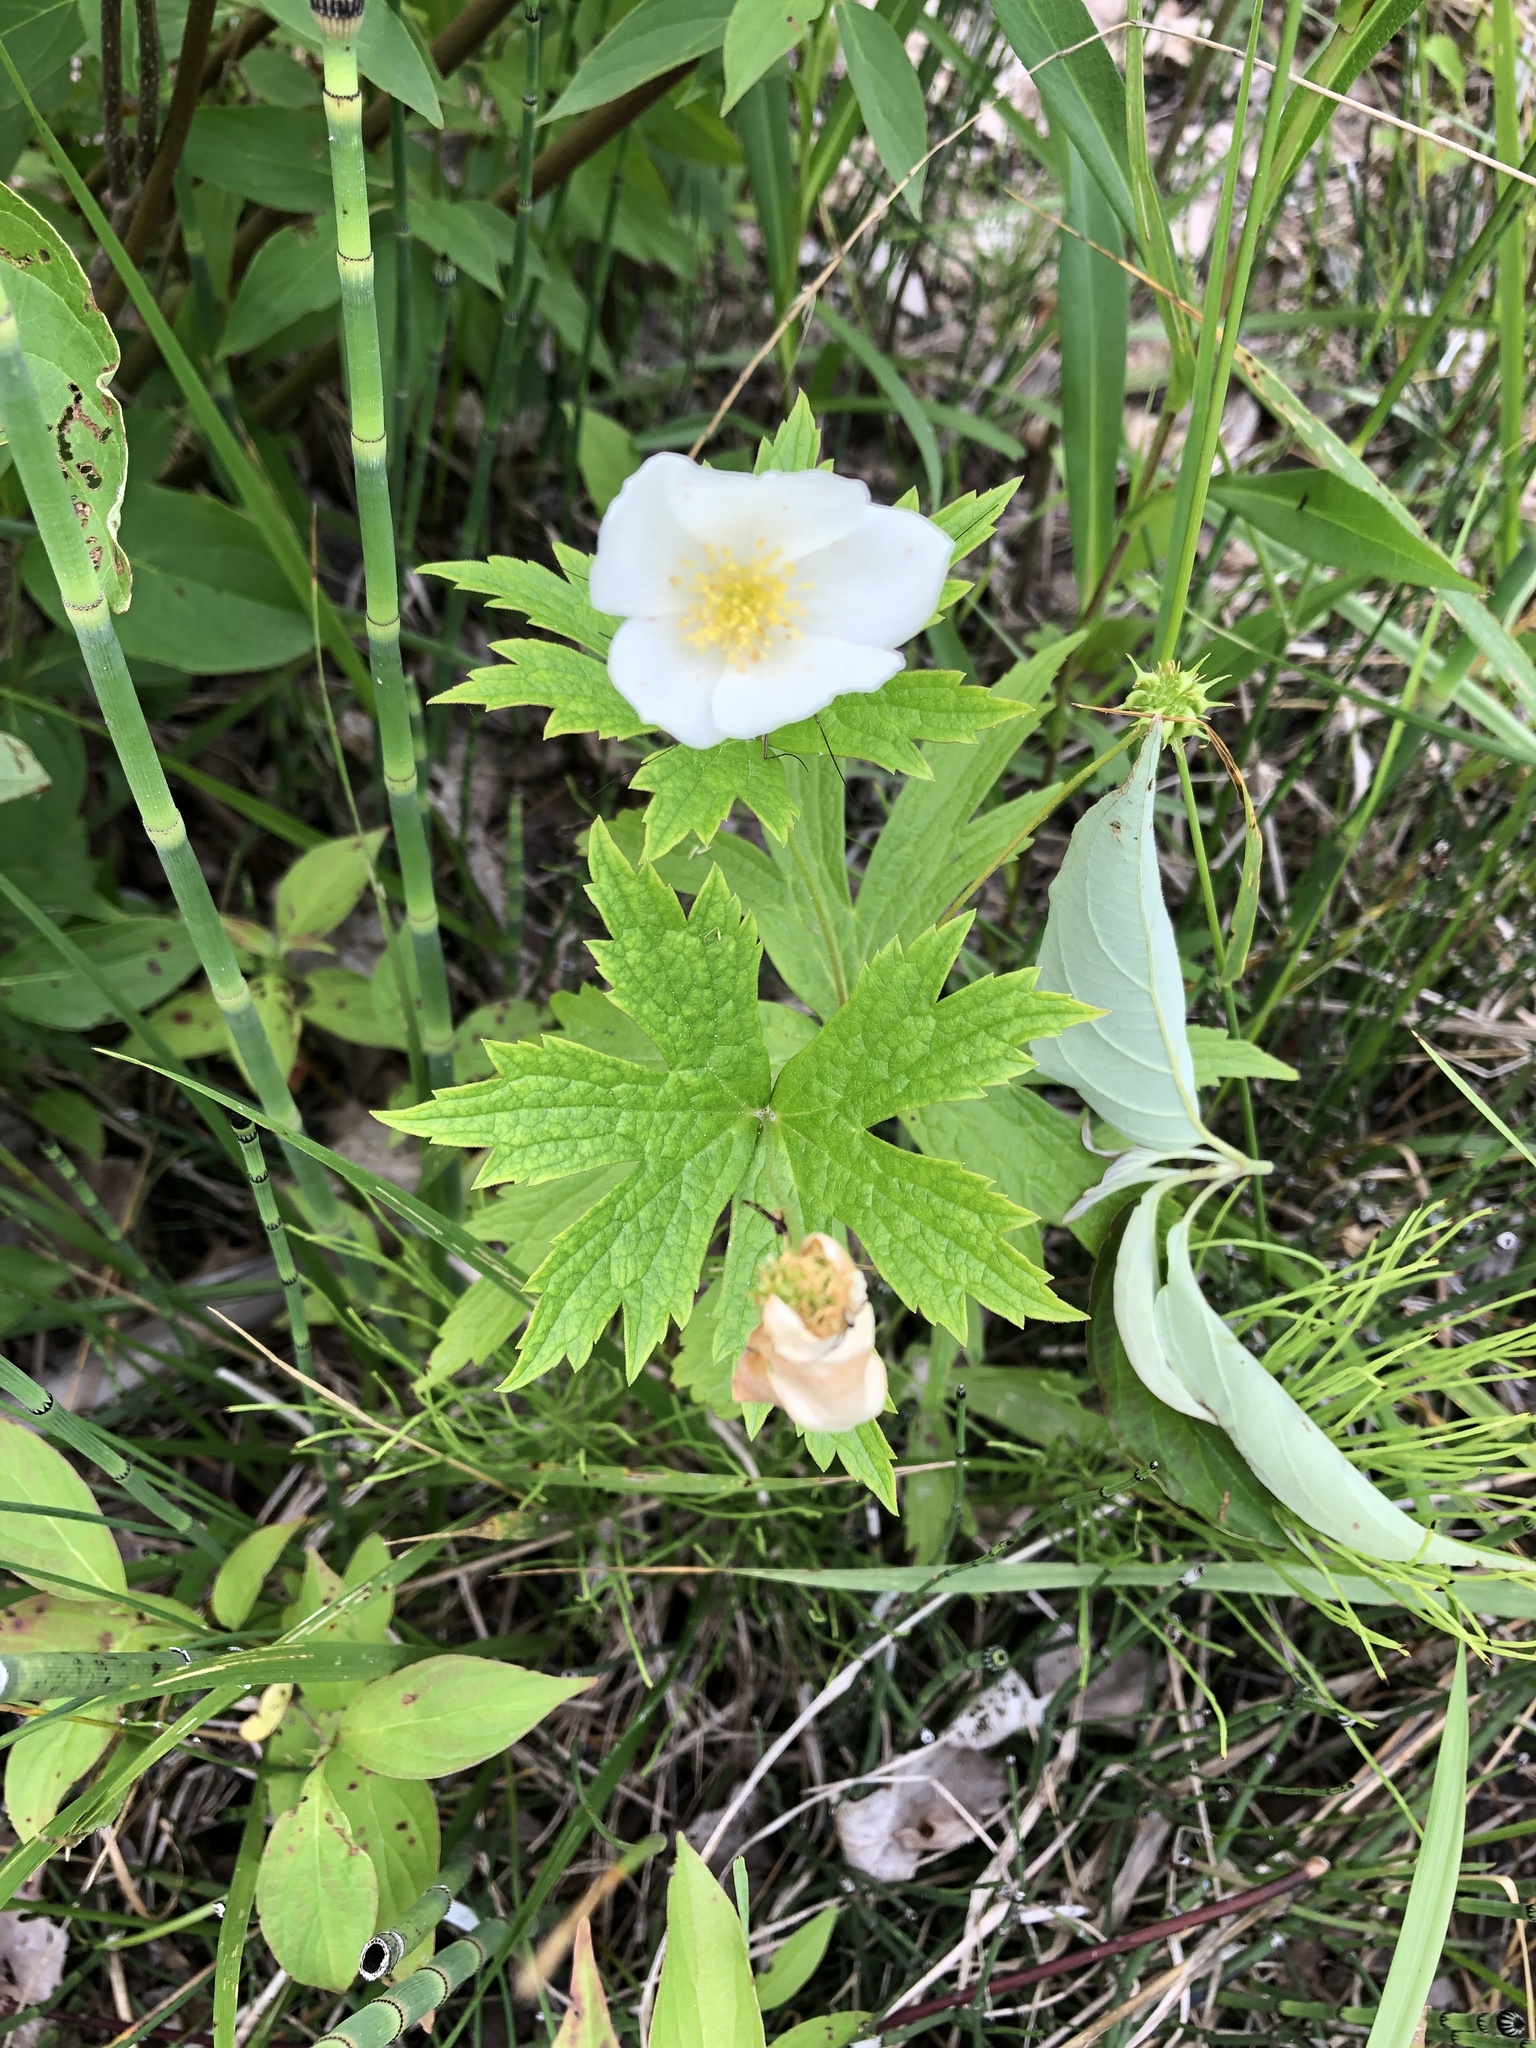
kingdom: Plantae
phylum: Tracheophyta
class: Magnoliopsida
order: Ranunculales
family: Ranunculaceae
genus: Anemonastrum
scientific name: Anemonastrum canadense
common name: Canada anemone
